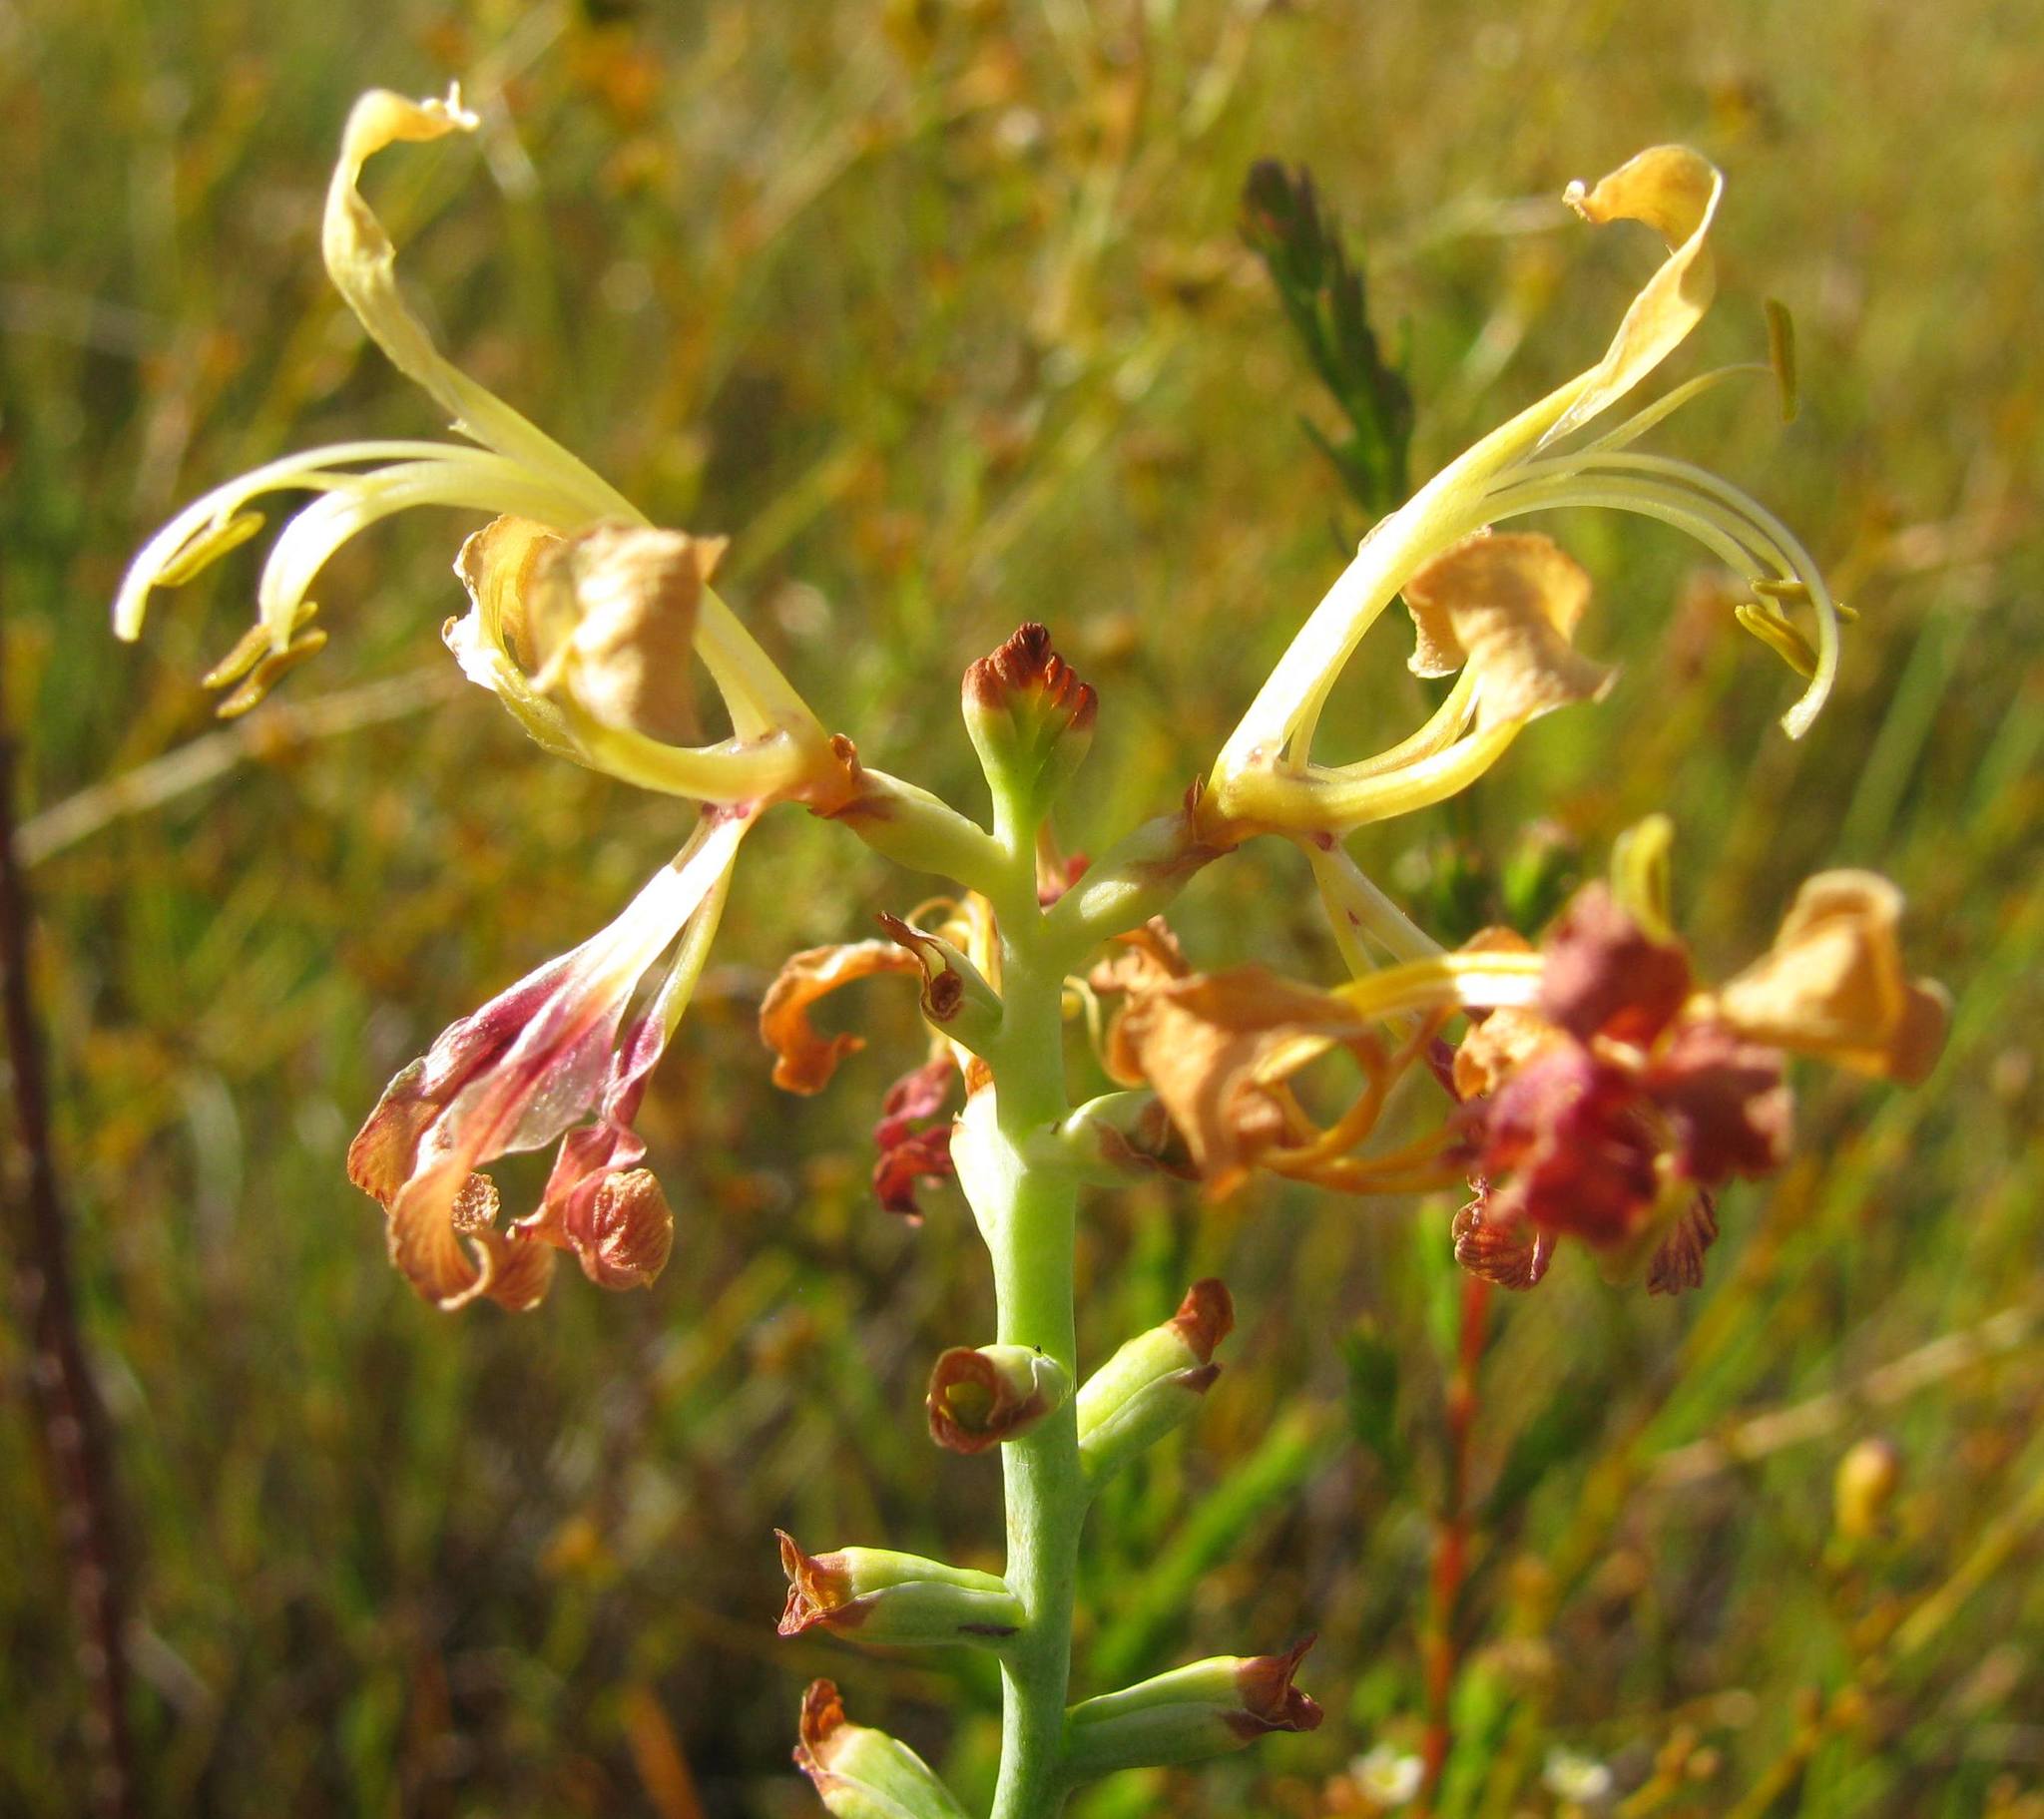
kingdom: Plantae
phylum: Tracheophyta
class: Liliopsida
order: Asparagales
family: Iridaceae
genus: Tritoniopsis
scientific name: Tritoniopsis parviflora
